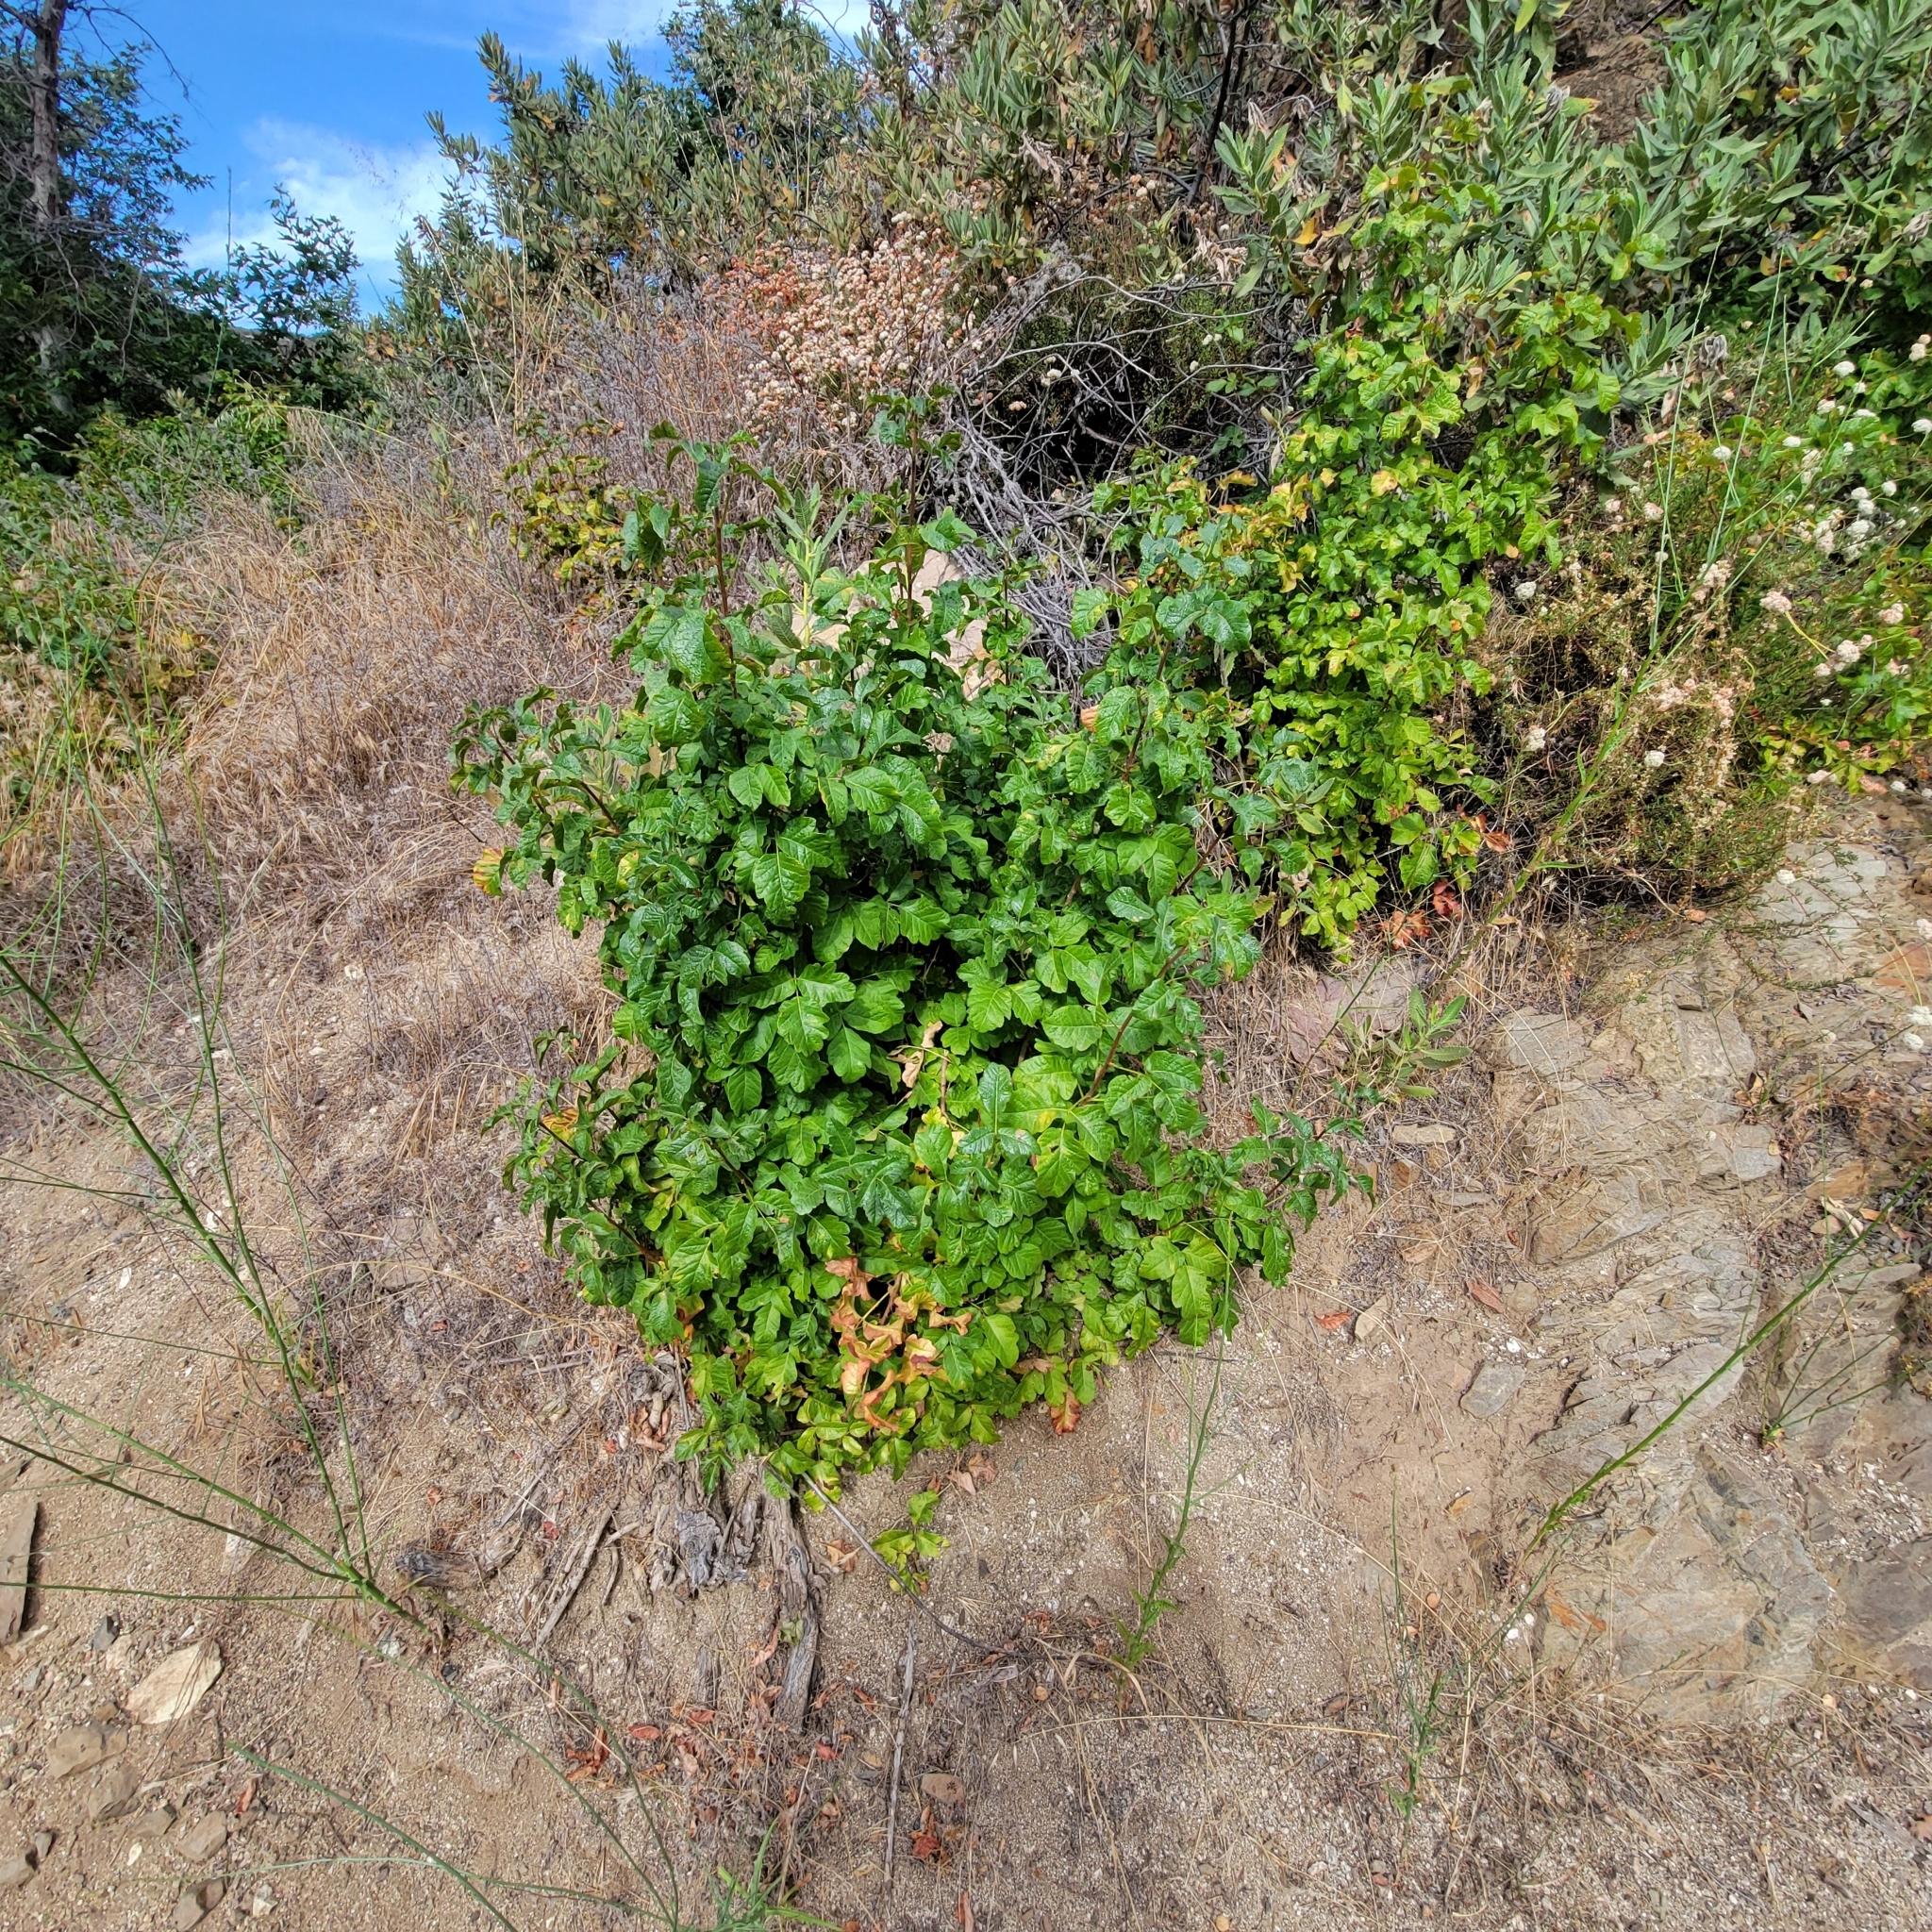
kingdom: Plantae
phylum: Tracheophyta
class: Magnoliopsida
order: Sapindales
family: Anacardiaceae
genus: Toxicodendron
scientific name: Toxicodendron diversilobum
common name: Pacific poison-oak
